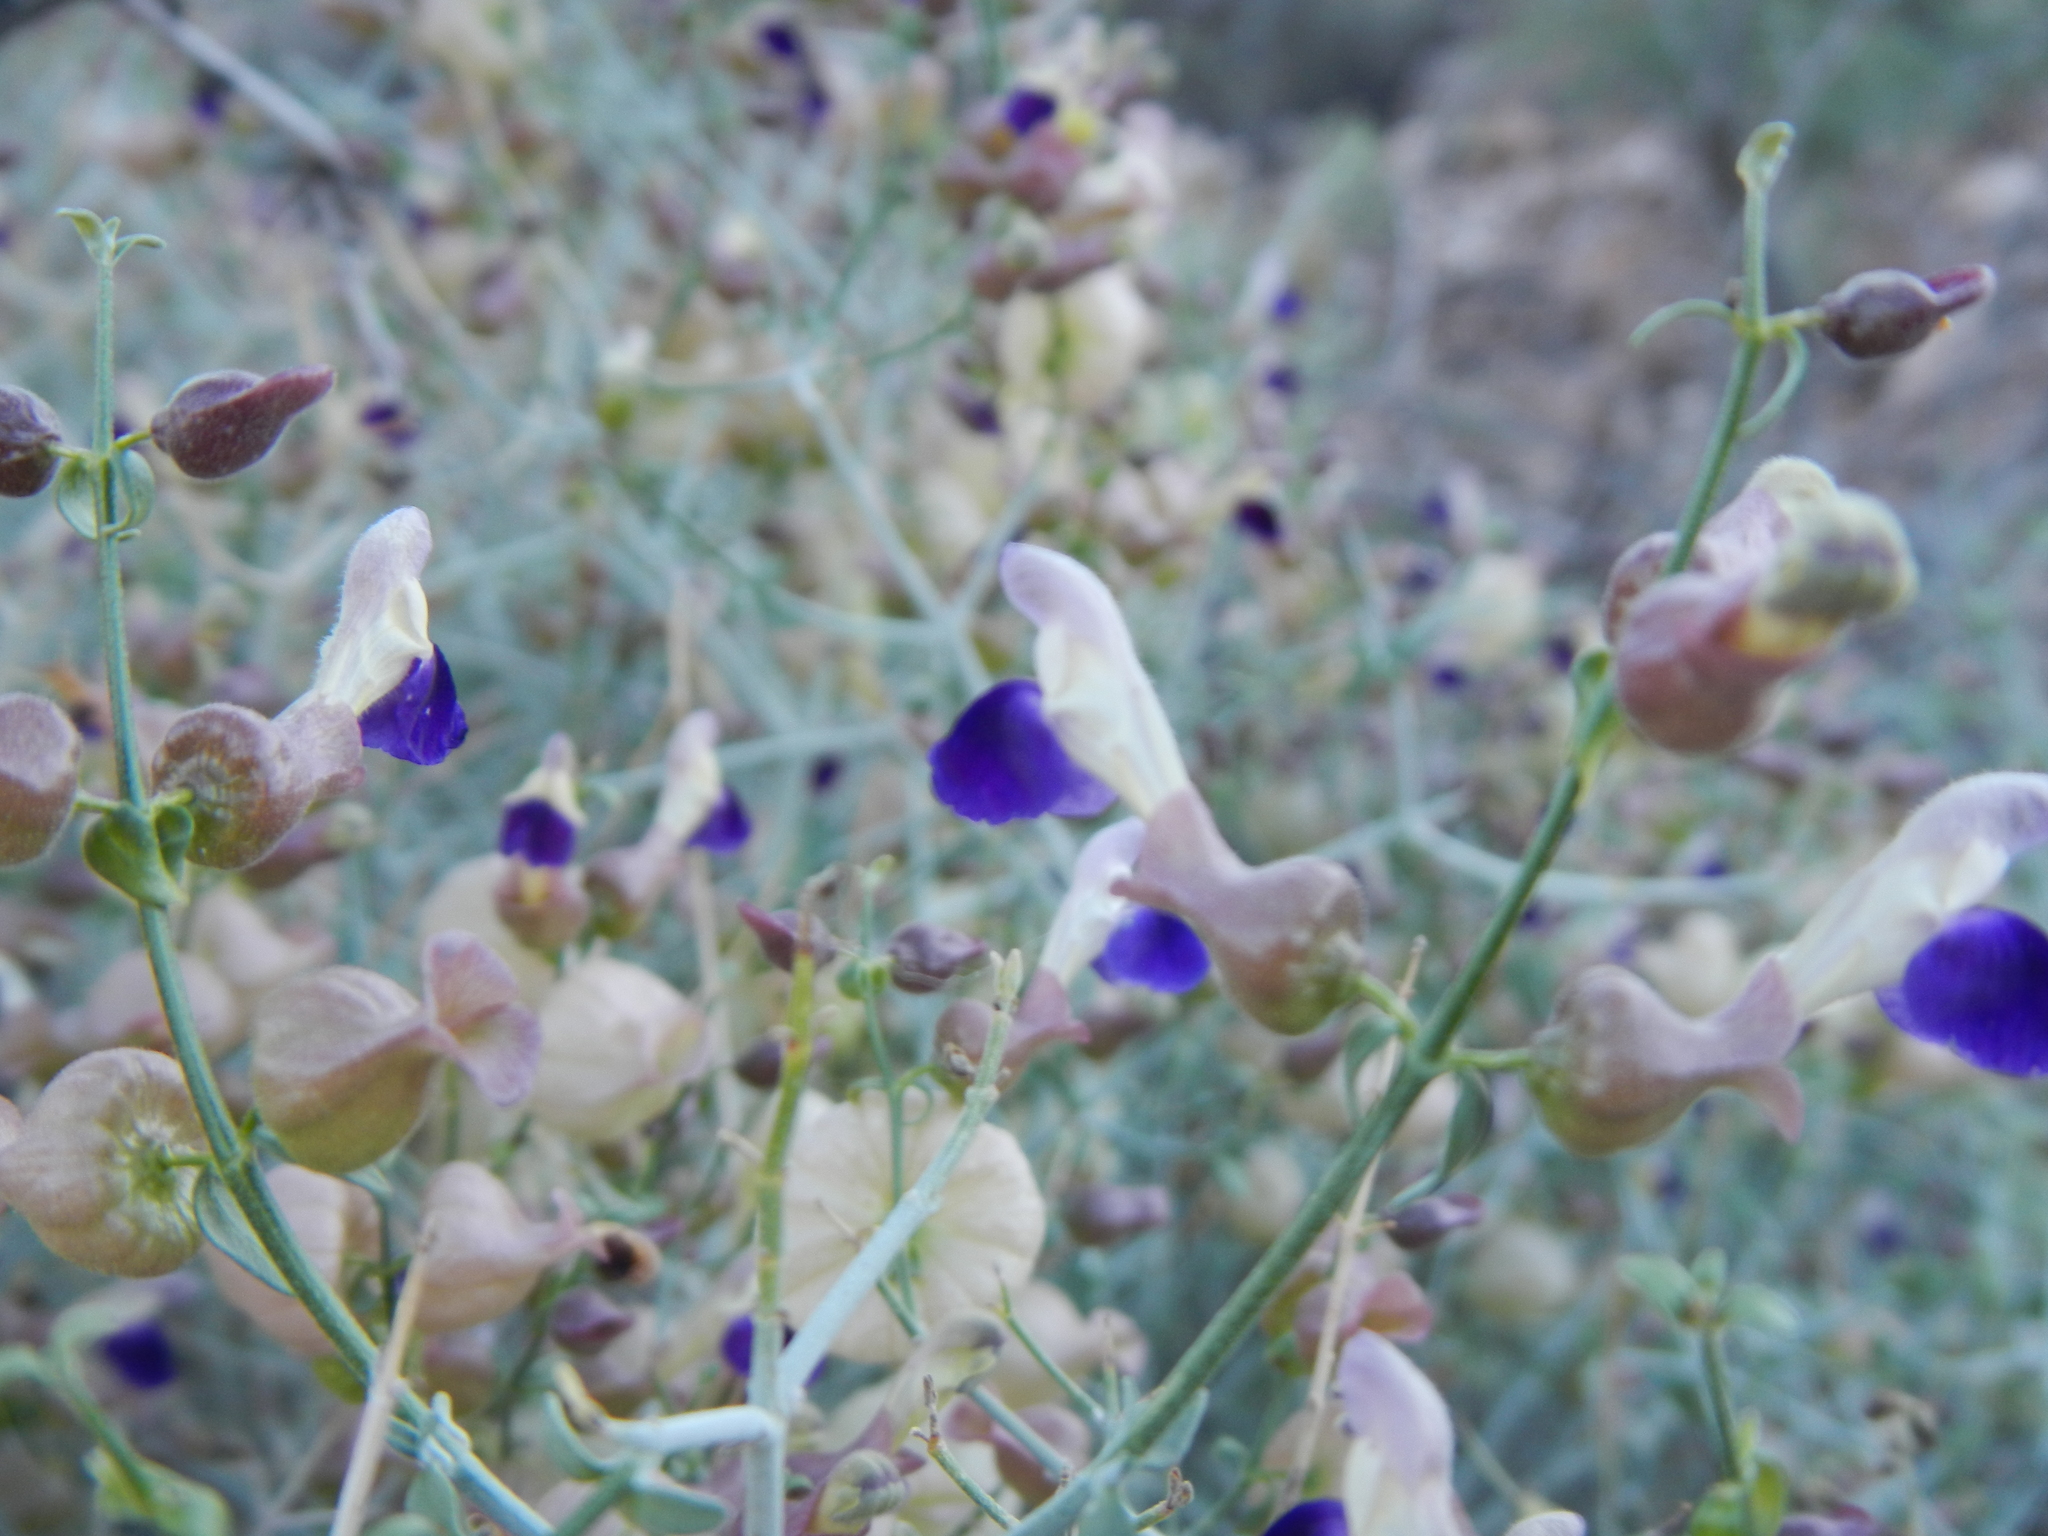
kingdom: Plantae
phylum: Tracheophyta
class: Magnoliopsida
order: Lamiales
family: Lamiaceae
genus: Scutellaria
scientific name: Scutellaria mexicana
